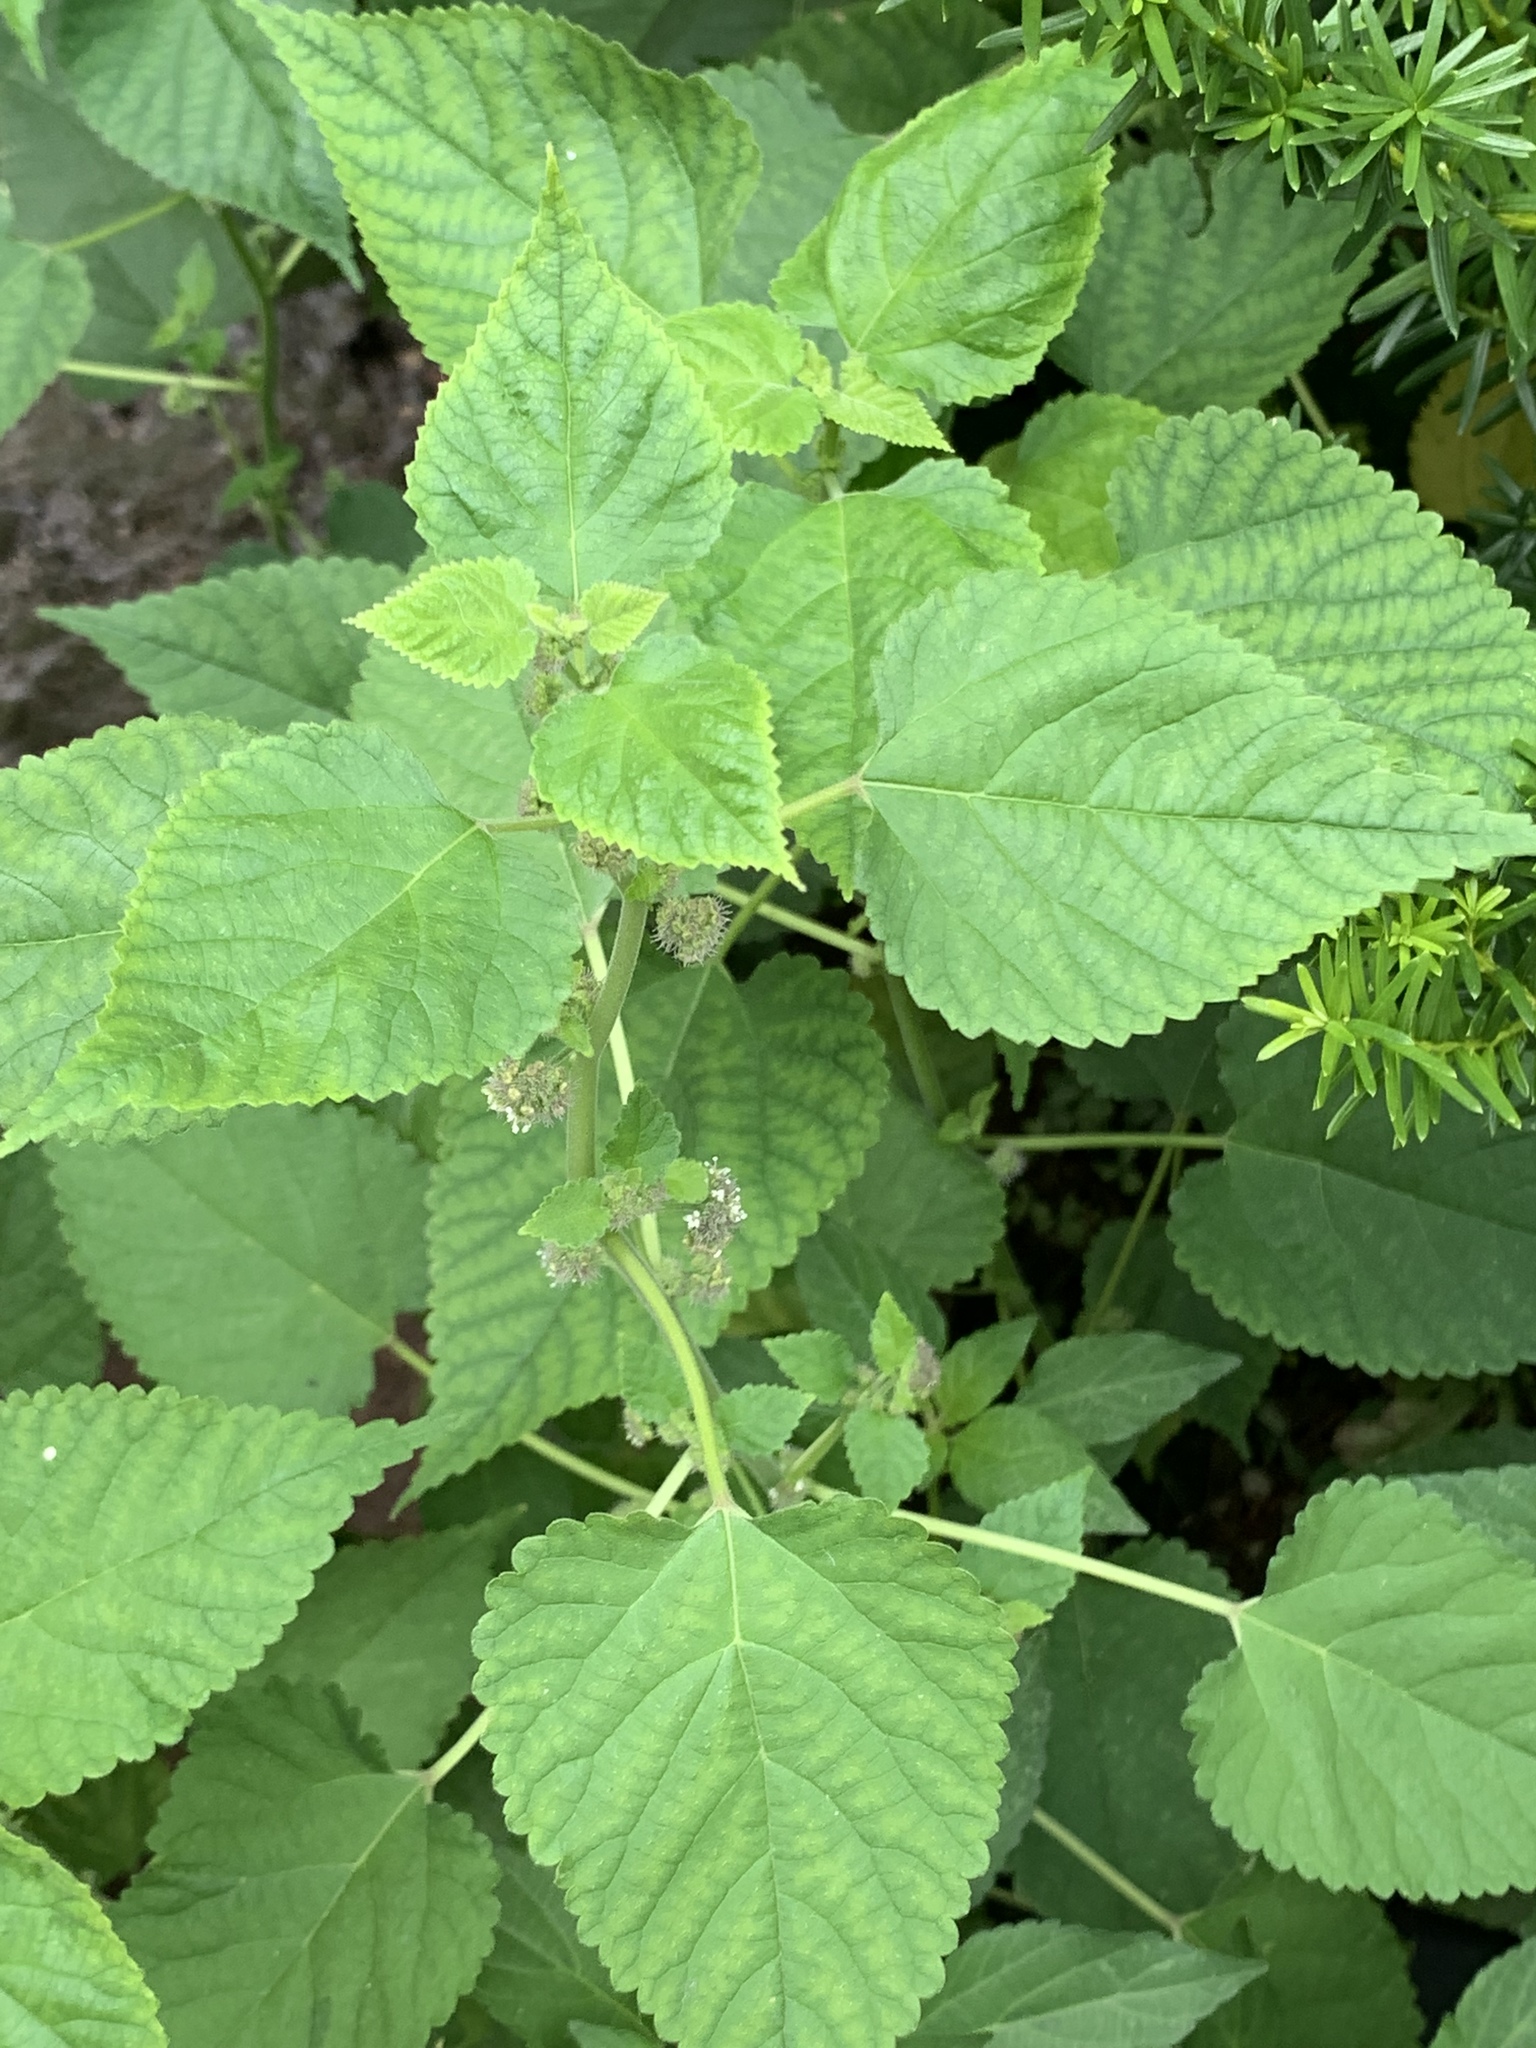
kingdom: Plantae
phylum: Tracheophyta
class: Magnoliopsida
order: Rosales
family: Moraceae
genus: Fatoua
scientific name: Fatoua villosa
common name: Hairy crabweed
